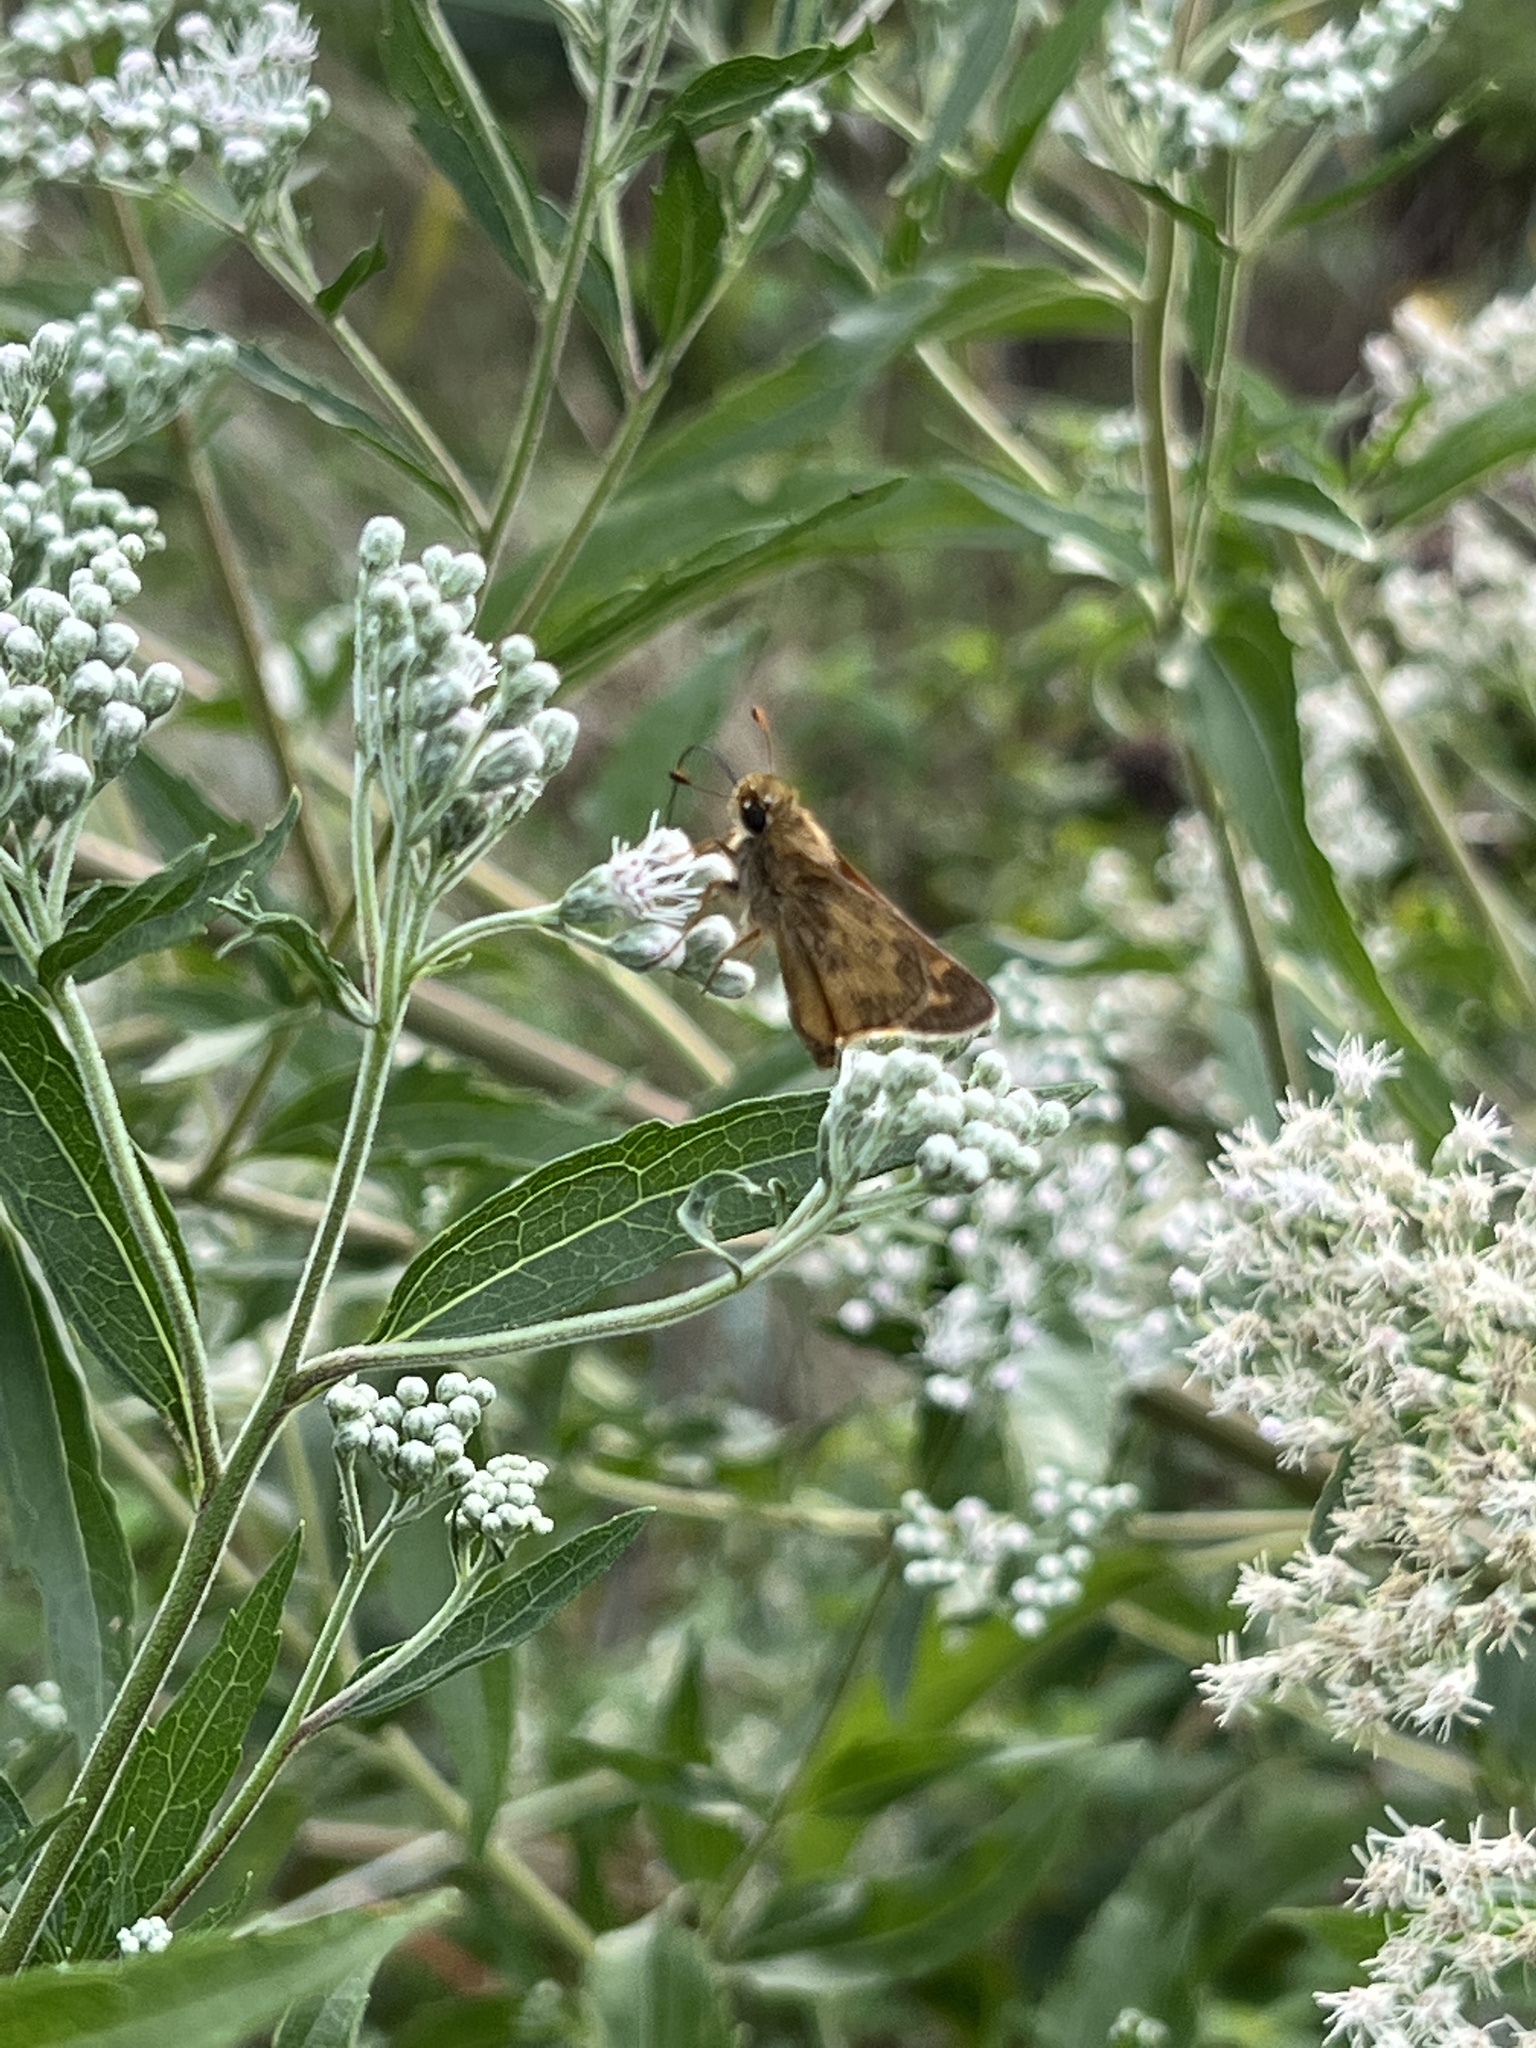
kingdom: Animalia
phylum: Arthropoda
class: Insecta
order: Lepidoptera
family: Hesperiidae
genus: Atalopedes
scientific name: Atalopedes
